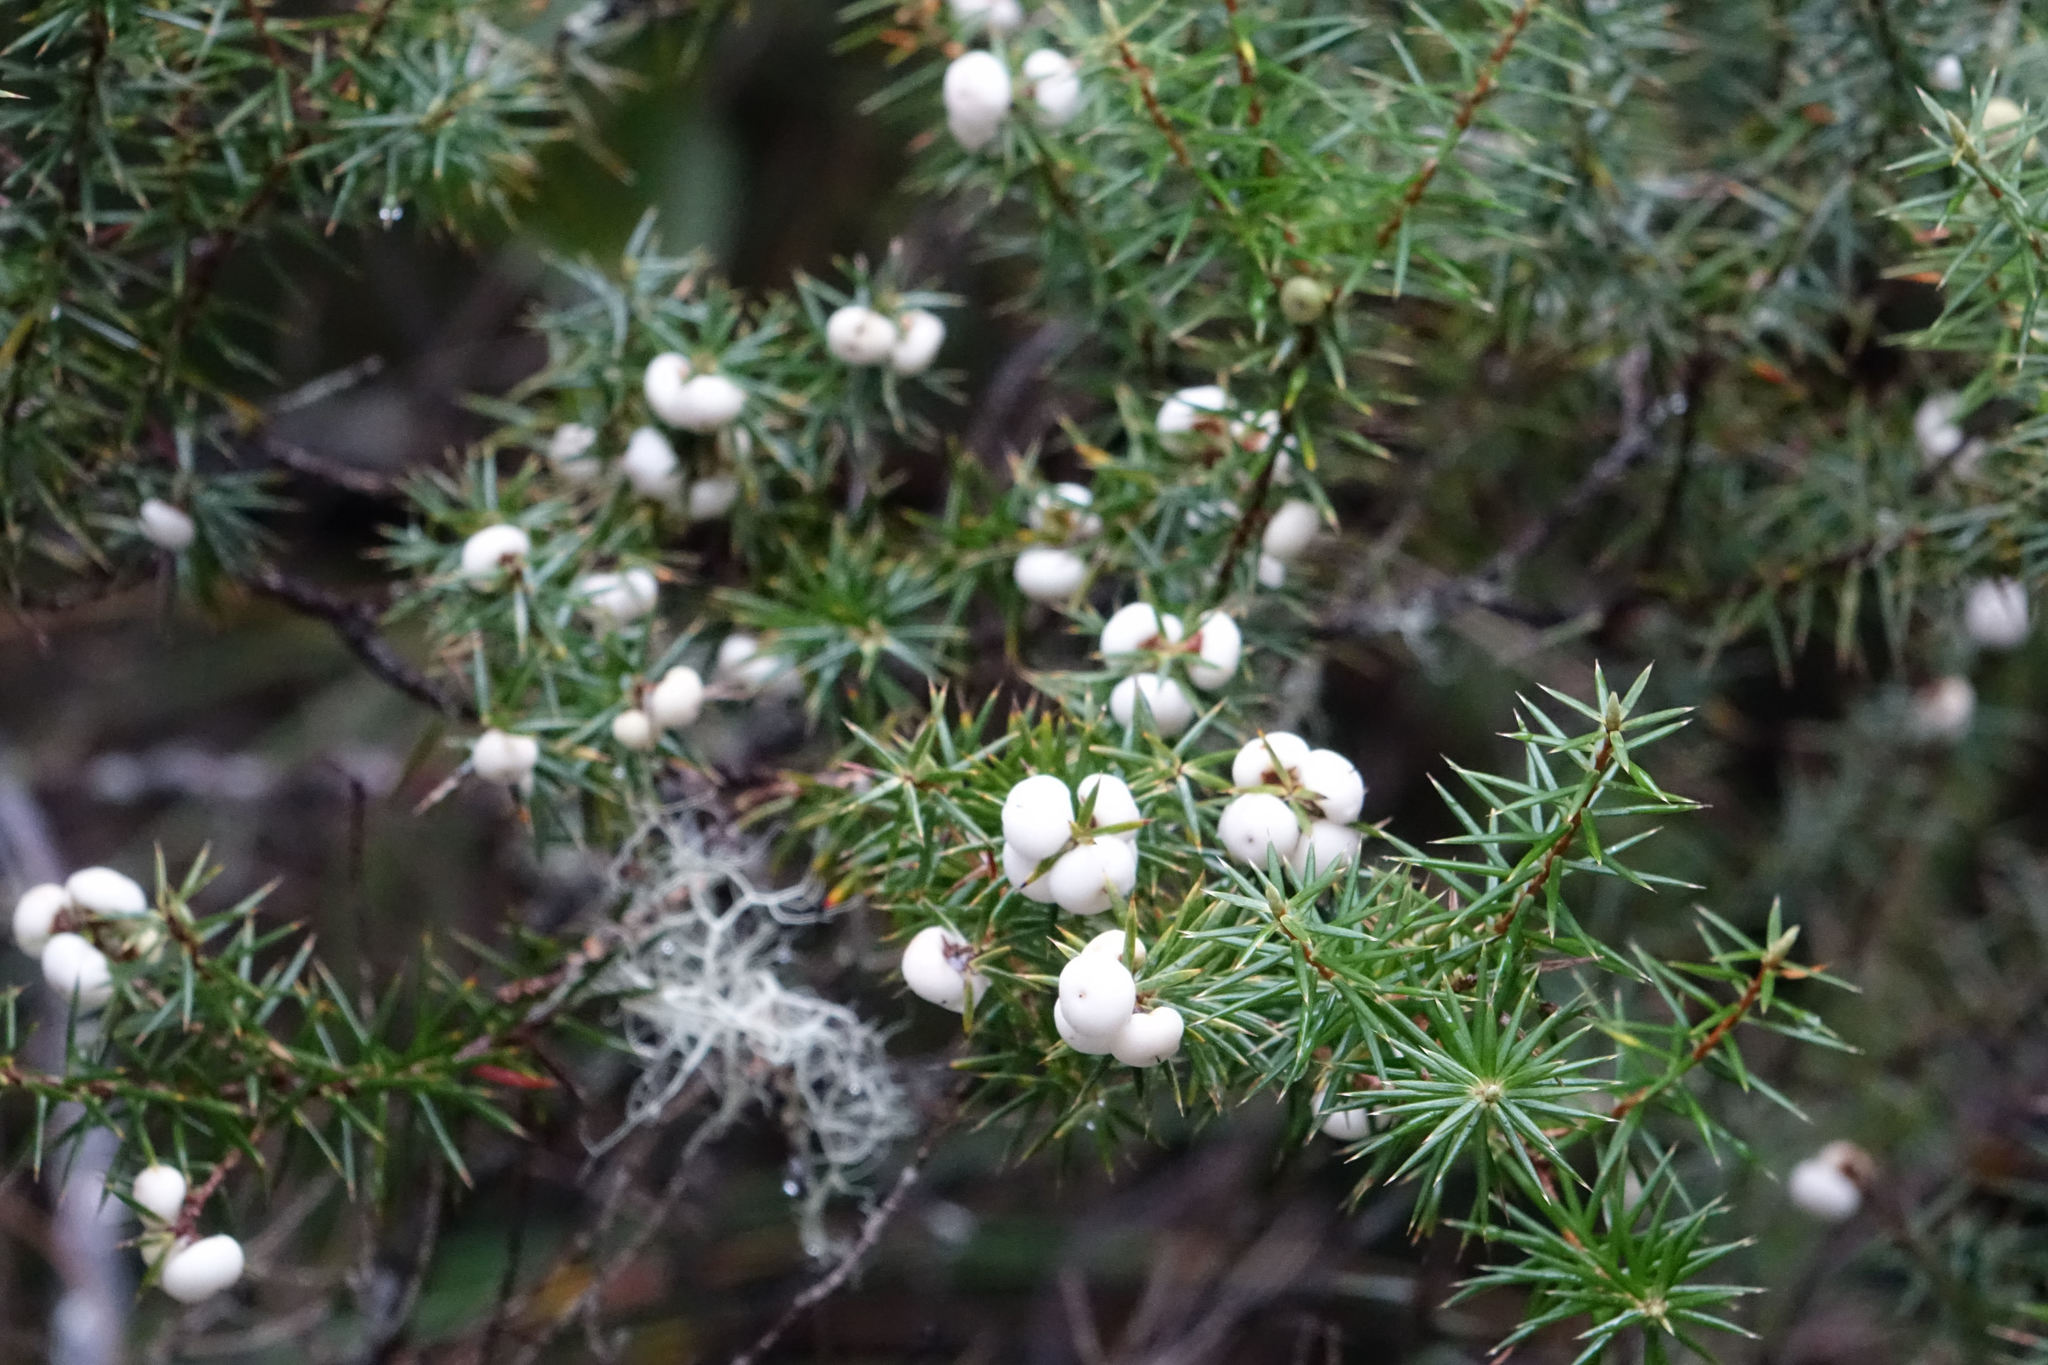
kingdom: Plantae
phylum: Tracheophyta
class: Magnoliopsida
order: Ericales
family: Ericaceae
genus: Leptecophylla
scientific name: Leptecophylla juniperina
